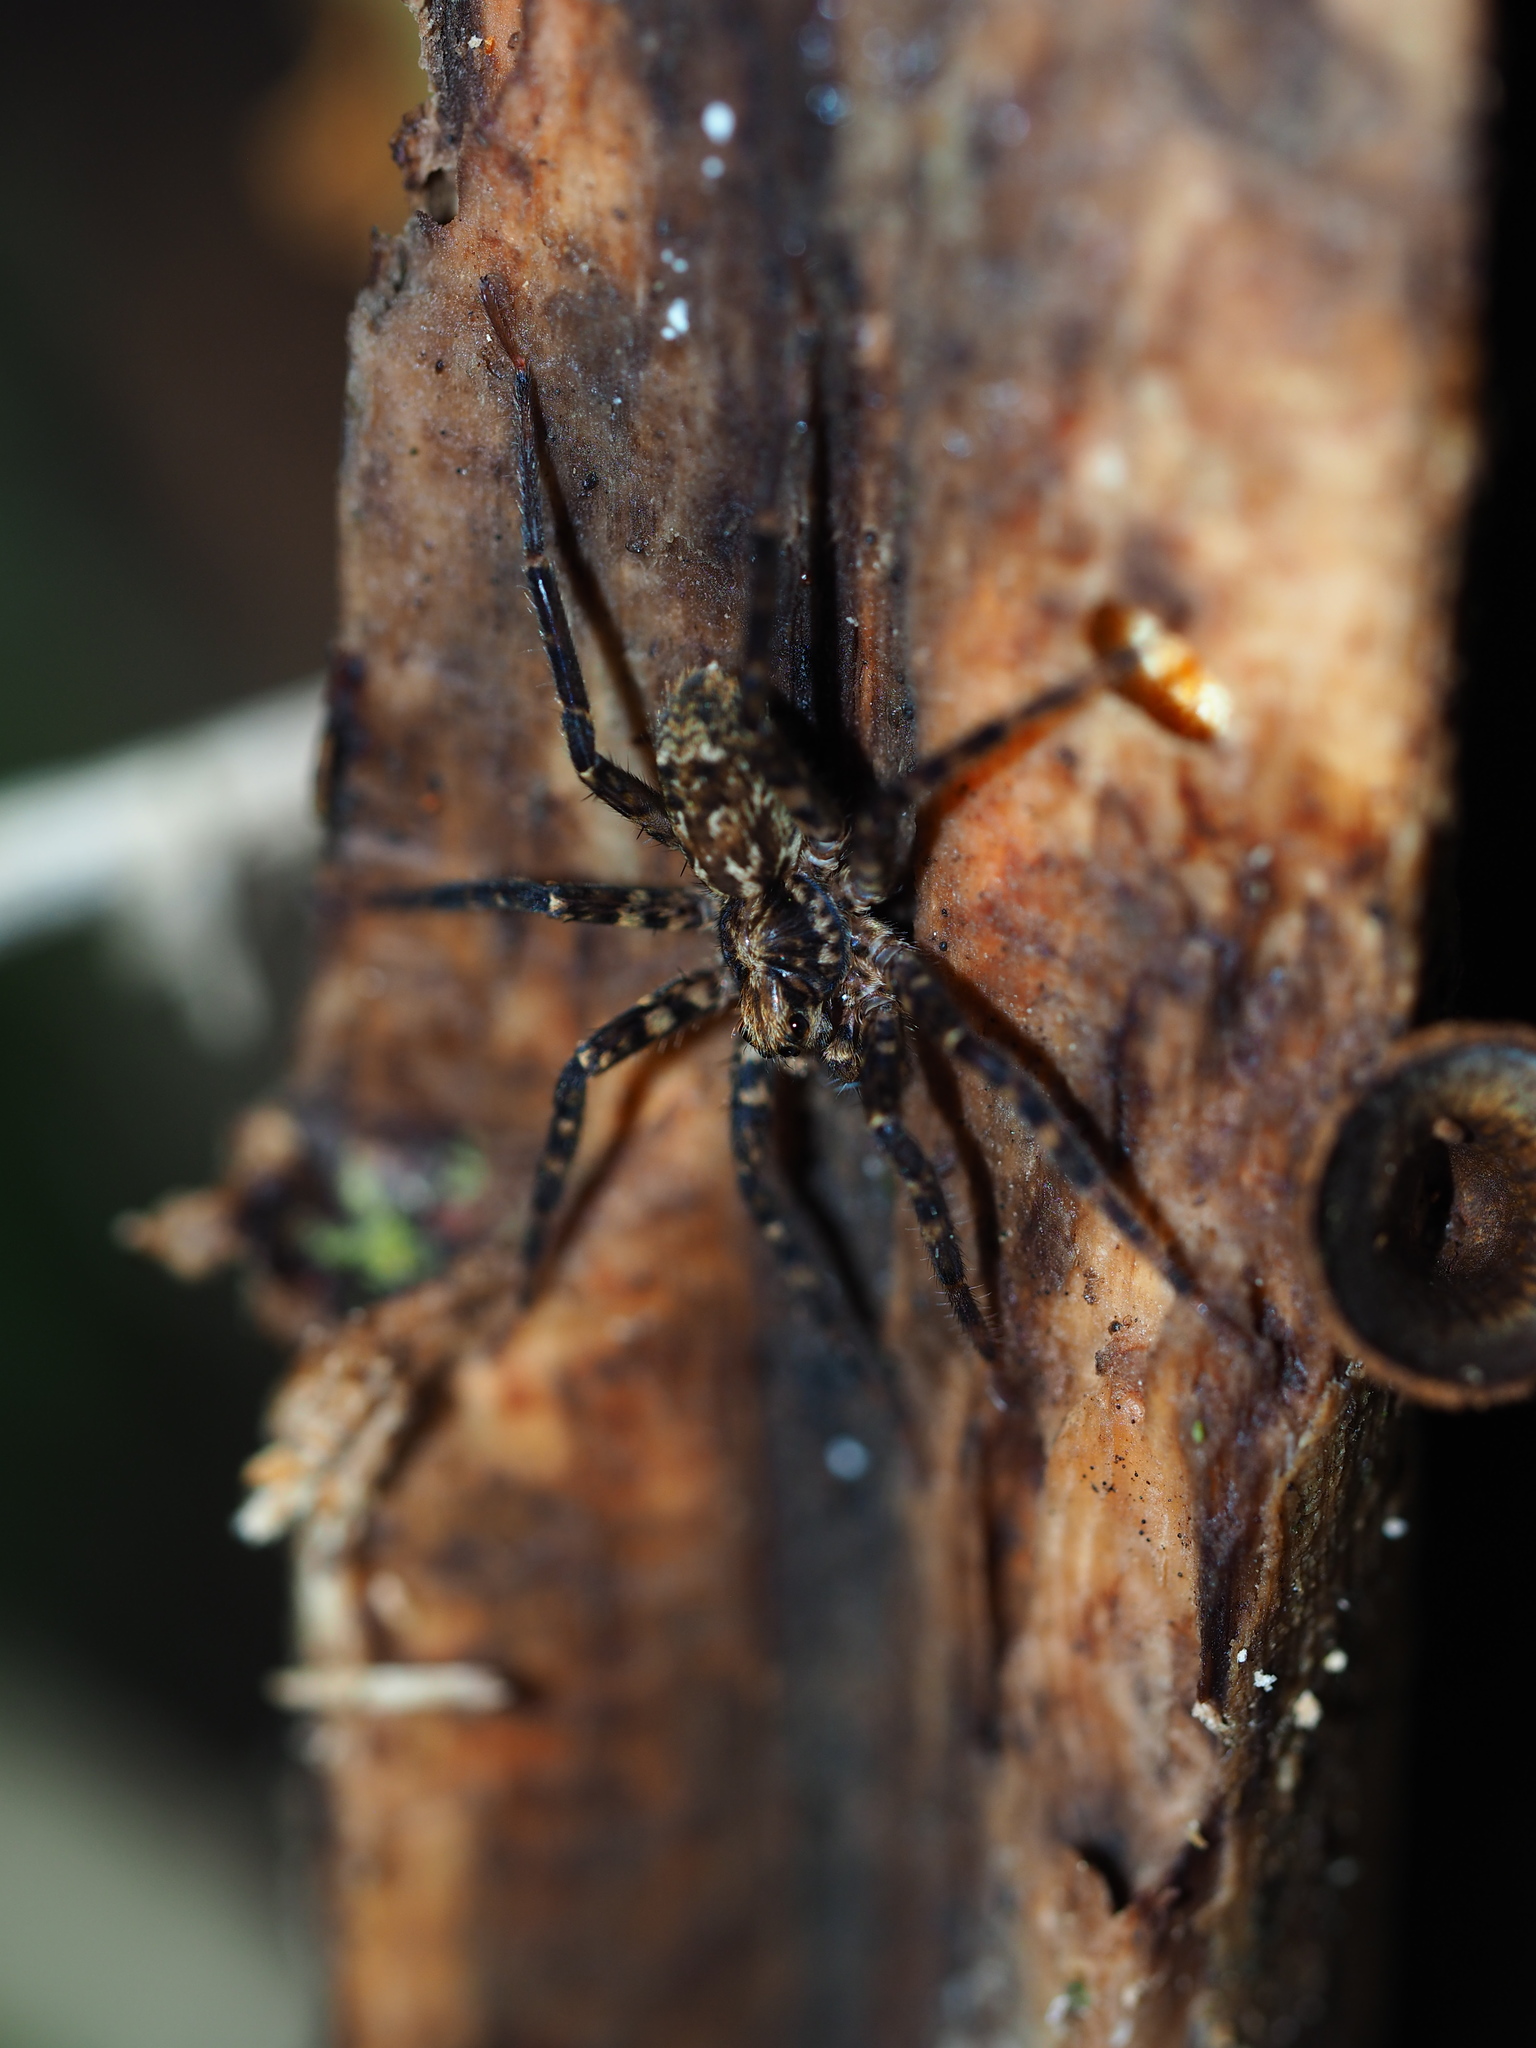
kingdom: Animalia
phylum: Arthropoda
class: Arachnida
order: Araneae
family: Cycloctenidae
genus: Cycloctenus
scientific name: Cycloctenus
